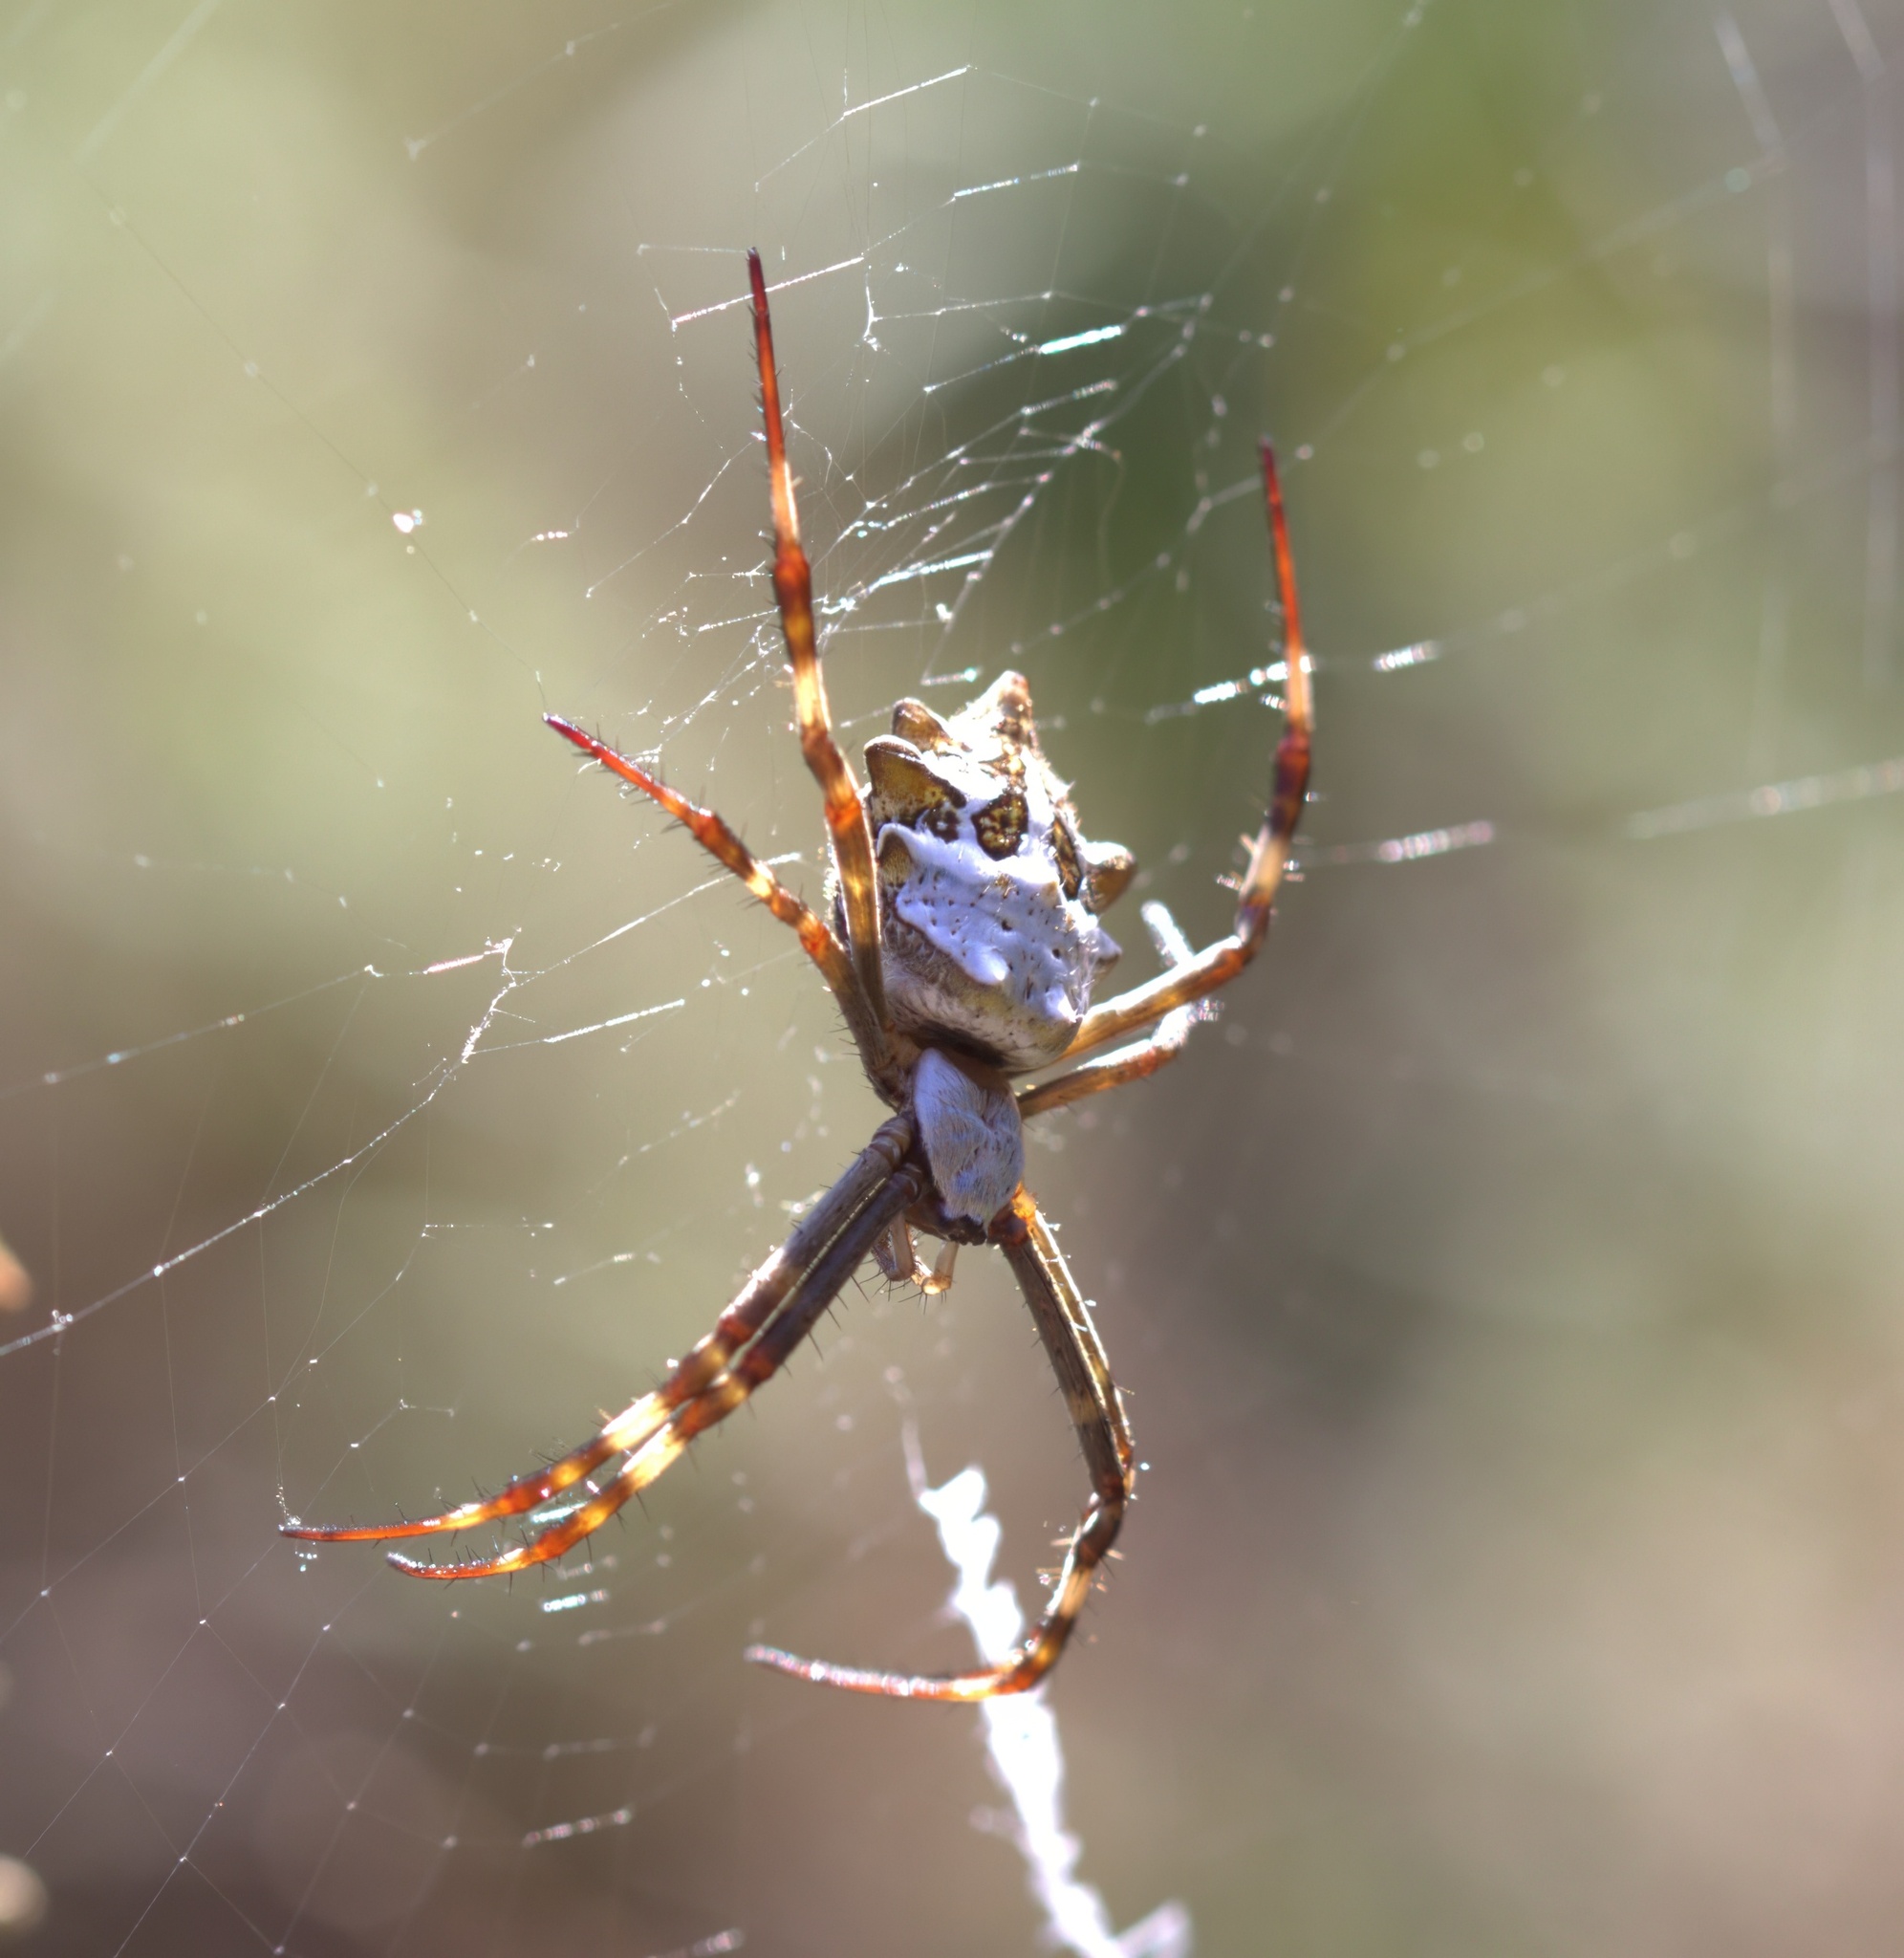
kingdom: Animalia
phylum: Arthropoda
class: Arachnida
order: Araneae
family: Araneidae
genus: Argiope
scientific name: Argiope argentata
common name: Orb weavers
